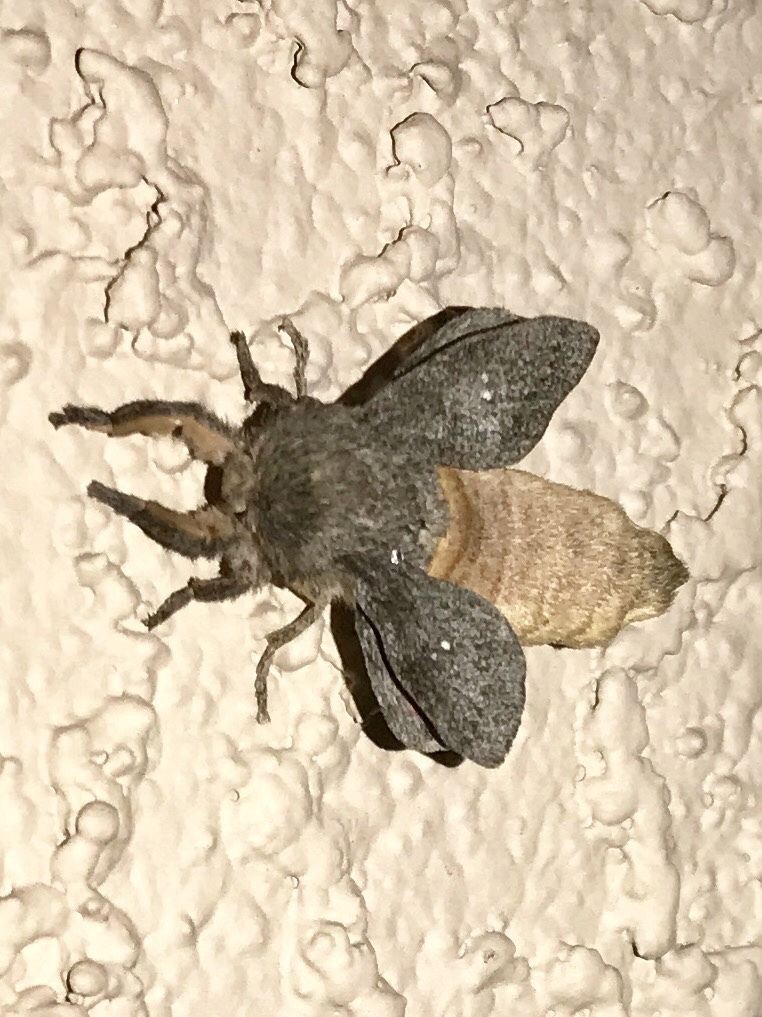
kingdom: Animalia
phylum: Arthropoda
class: Insecta
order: Lepidoptera
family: Saturniidae
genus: Syssphinx
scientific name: Syssphinx hubbardi
